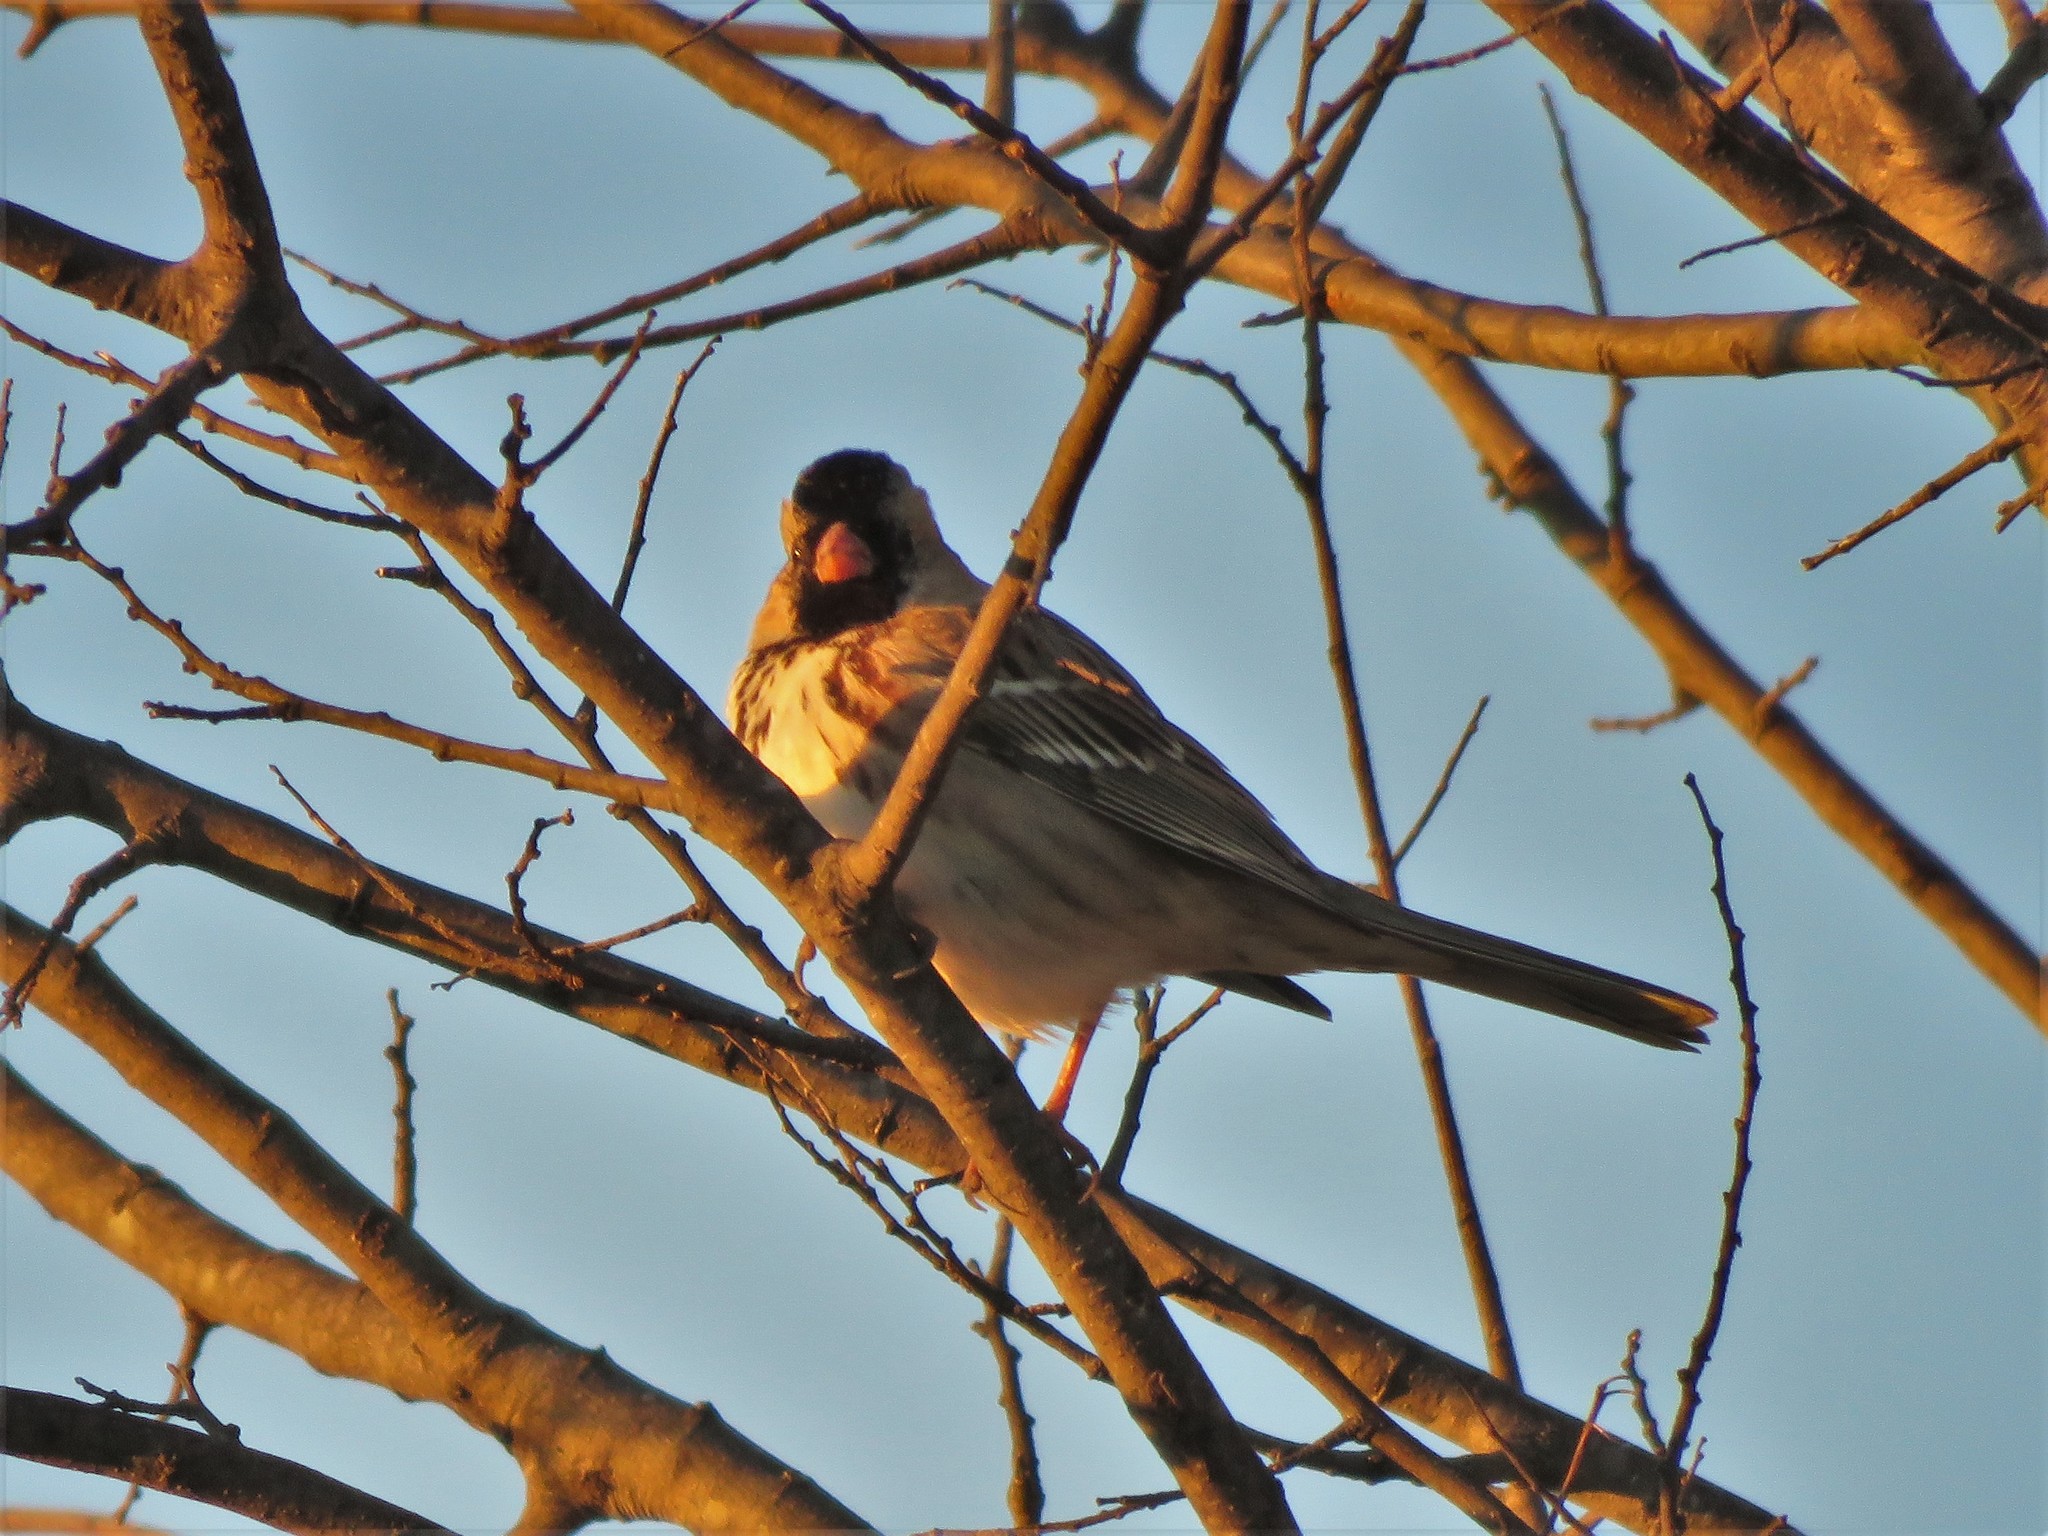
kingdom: Animalia
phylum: Chordata
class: Aves
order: Passeriformes
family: Passerellidae
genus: Zonotrichia
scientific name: Zonotrichia querula
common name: Harris's sparrow
